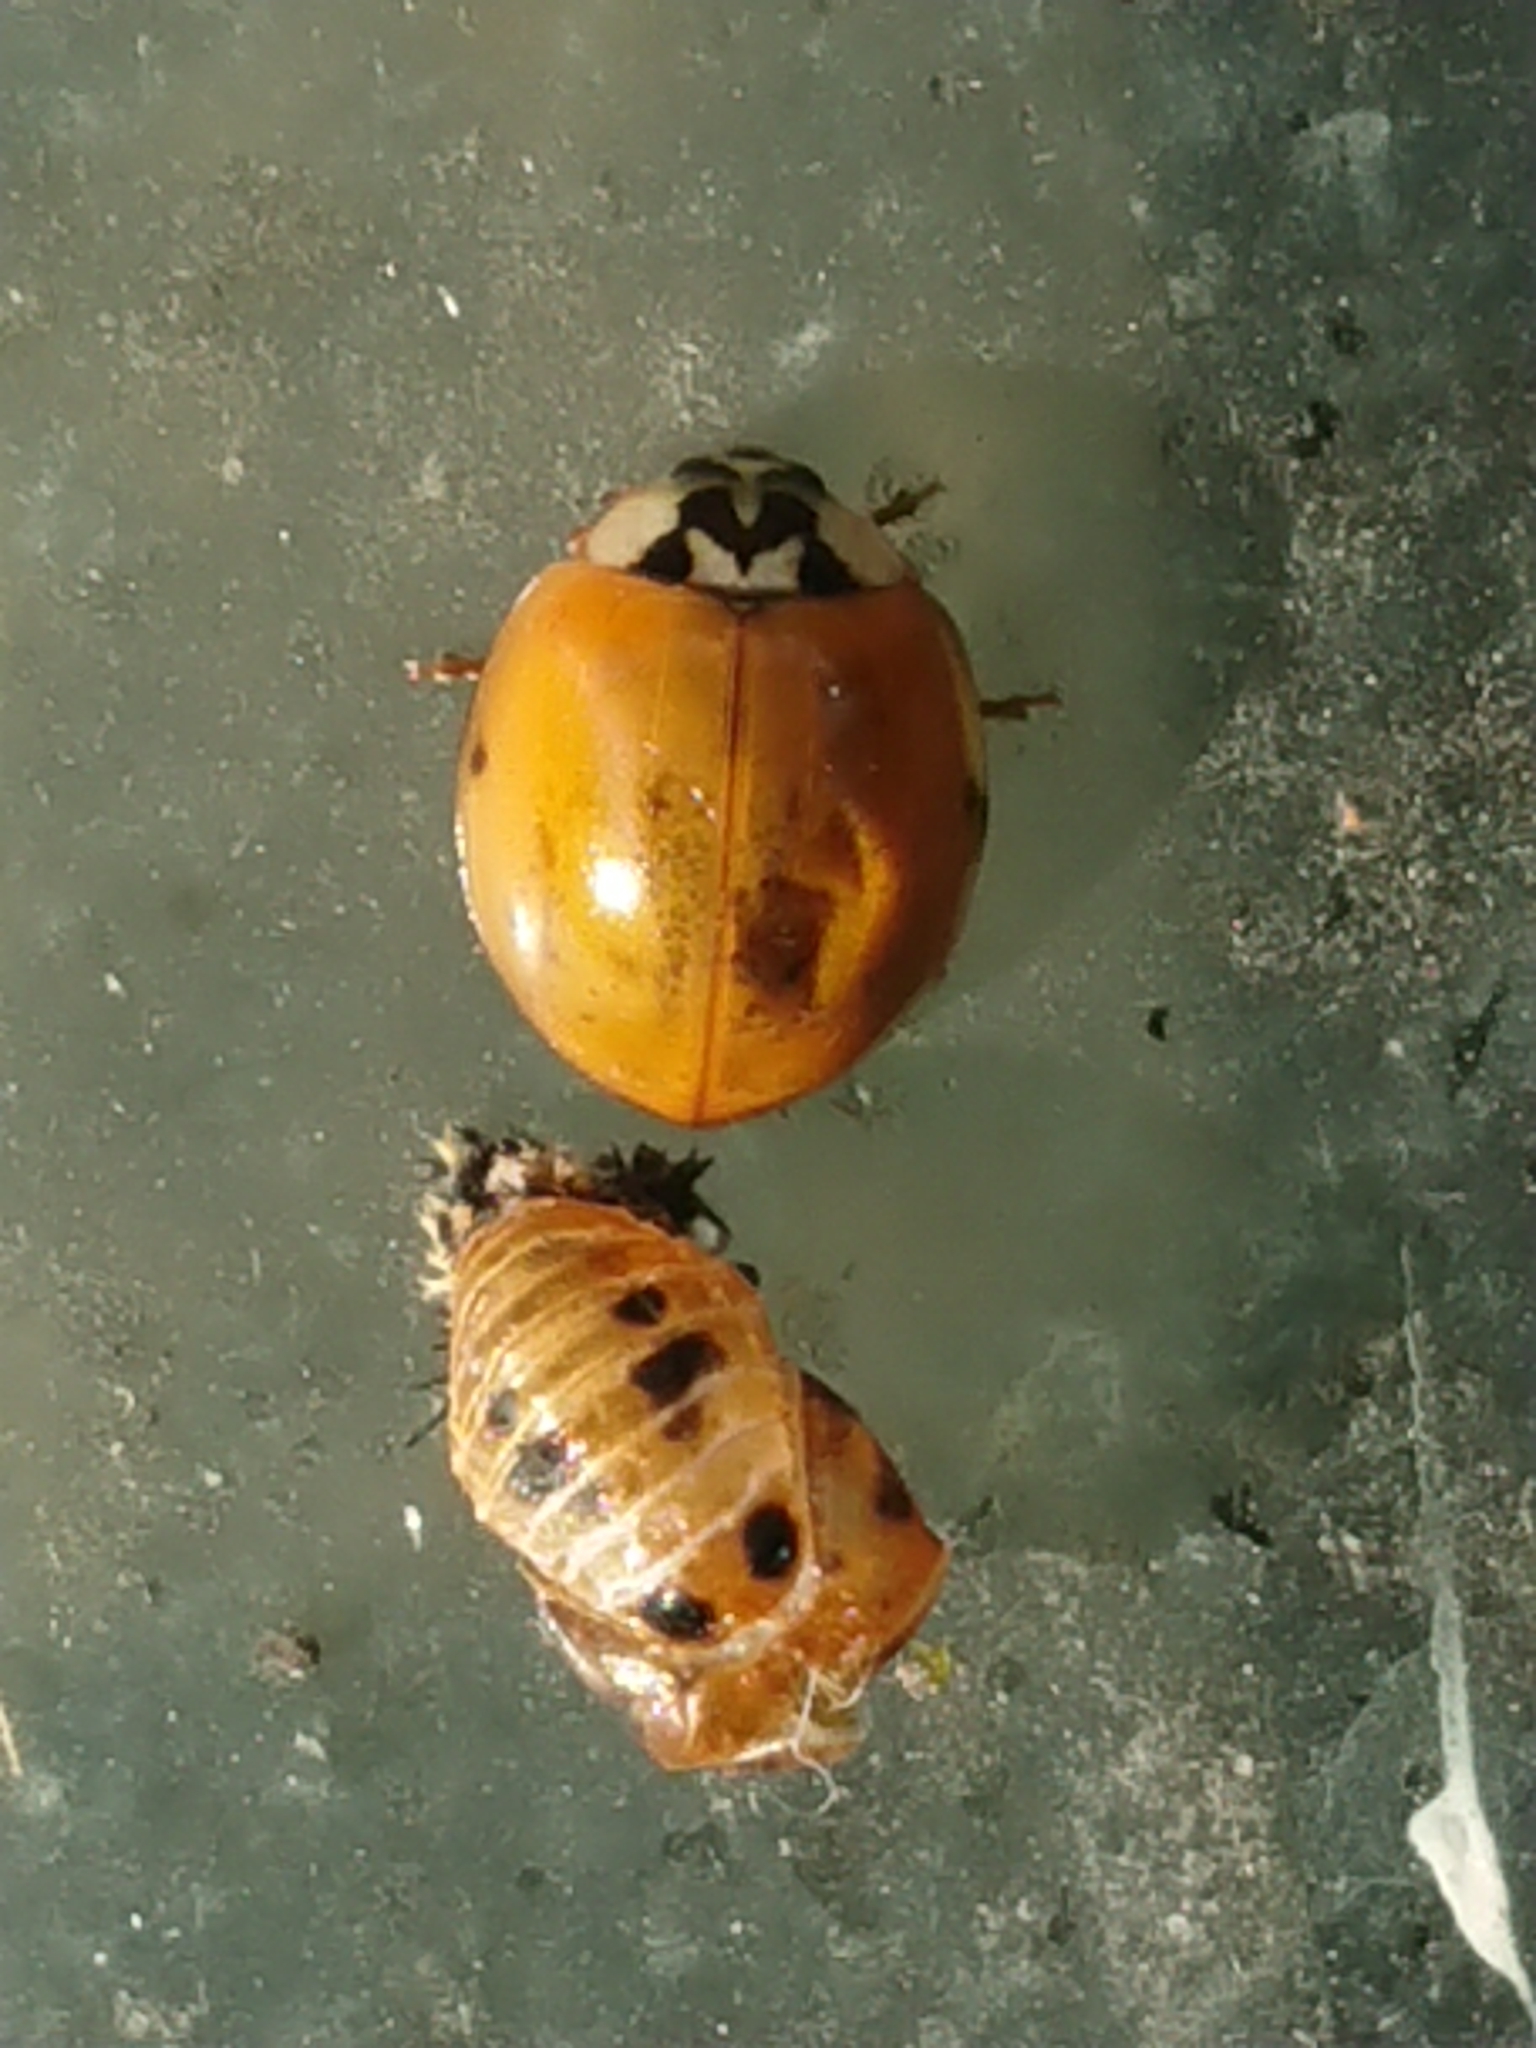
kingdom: Animalia
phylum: Arthropoda
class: Insecta
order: Coleoptera
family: Coccinellidae
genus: Harmonia
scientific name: Harmonia axyridis
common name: Harlequin ladybird
